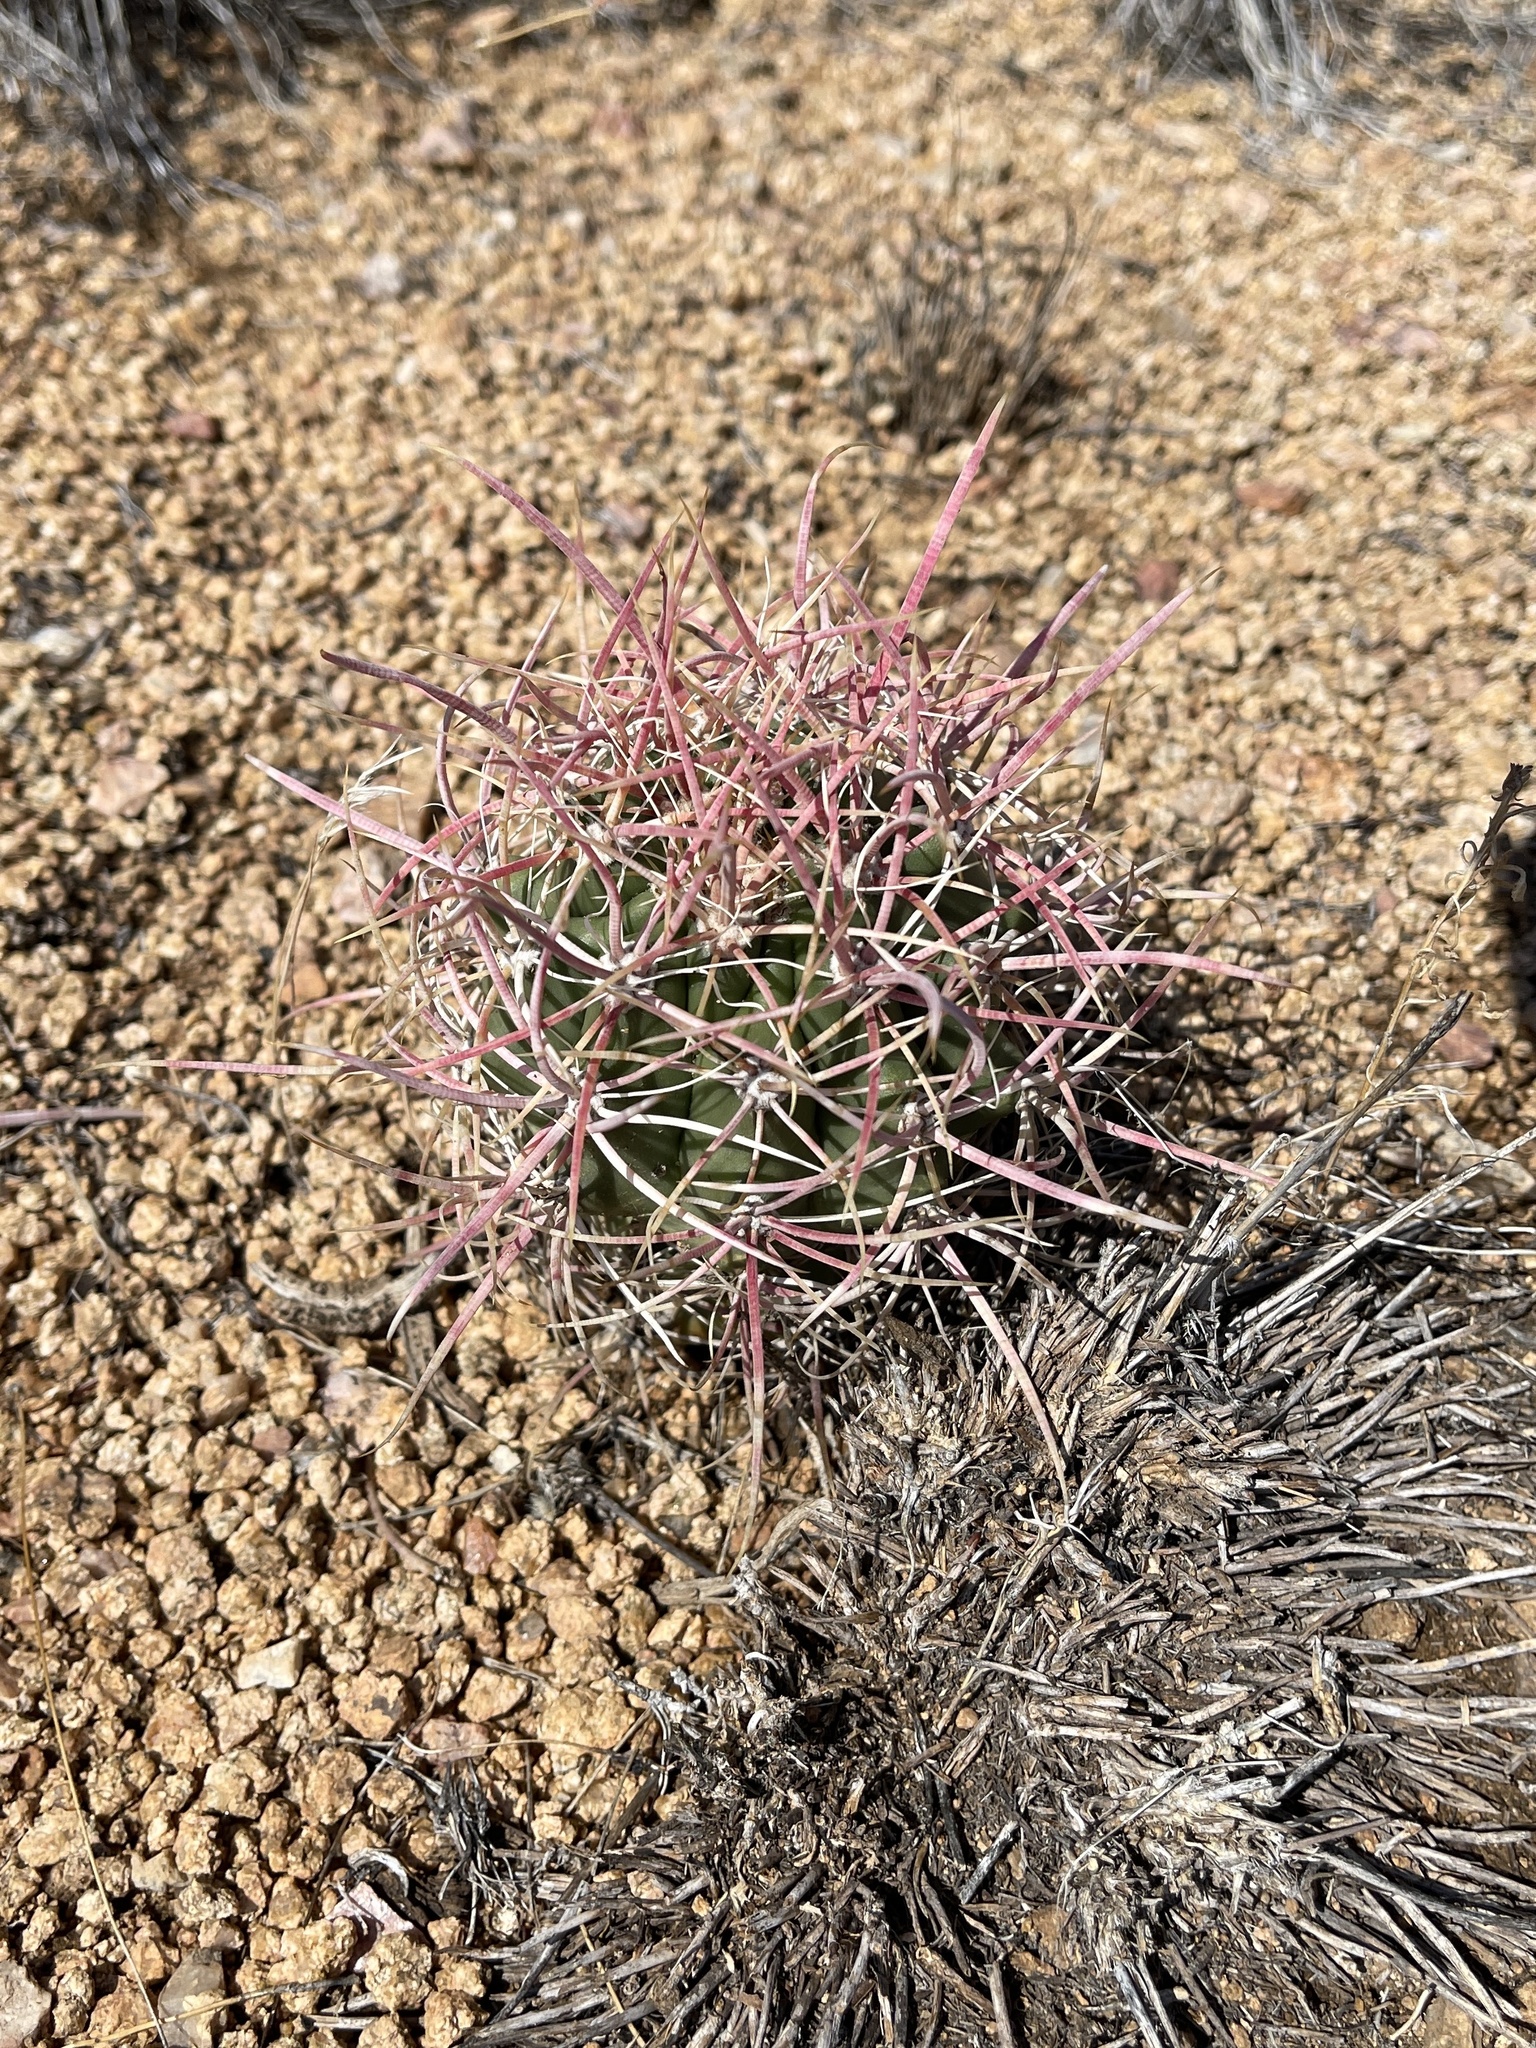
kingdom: Plantae
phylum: Tracheophyta
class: Magnoliopsida
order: Caryophyllales
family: Cactaceae
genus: Ferocactus
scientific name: Ferocactus cylindraceus
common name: California barrel cactus
